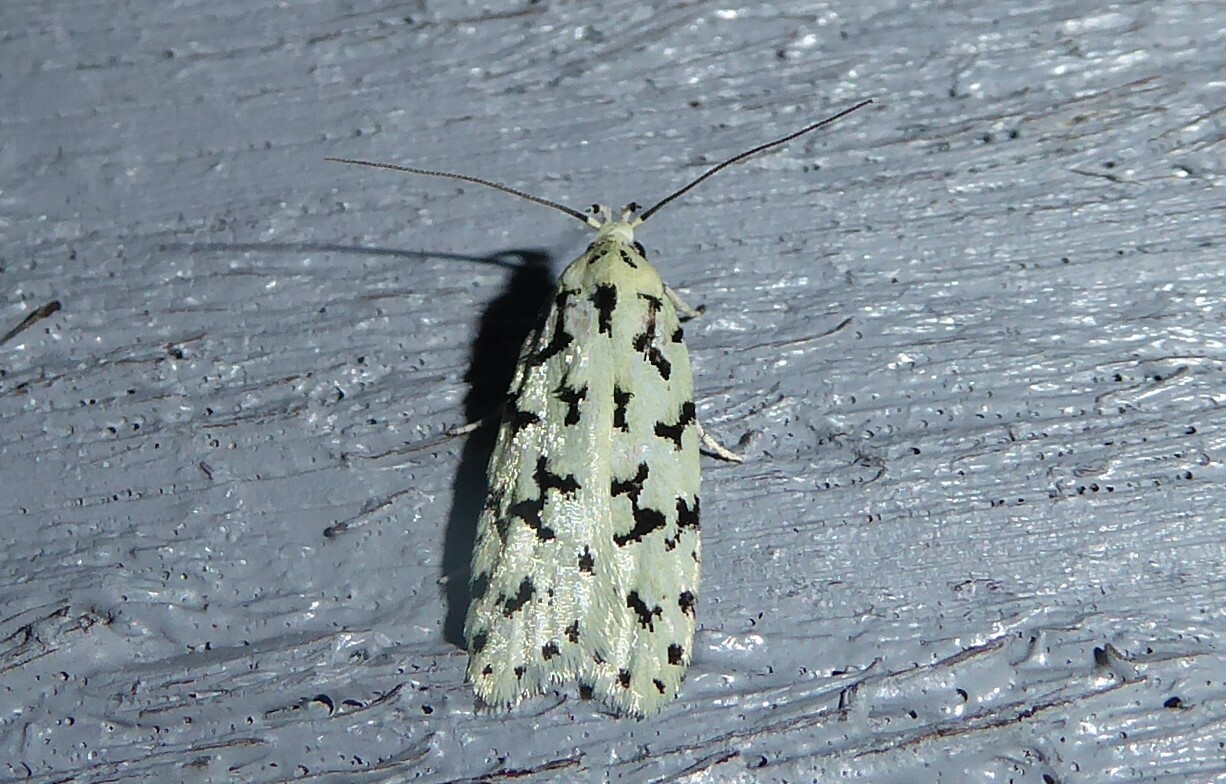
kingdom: Animalia
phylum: Arthropoda
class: Insecta
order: Lepidoptera
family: Oecophoridae
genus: Izatha
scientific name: Izatha huttoni
